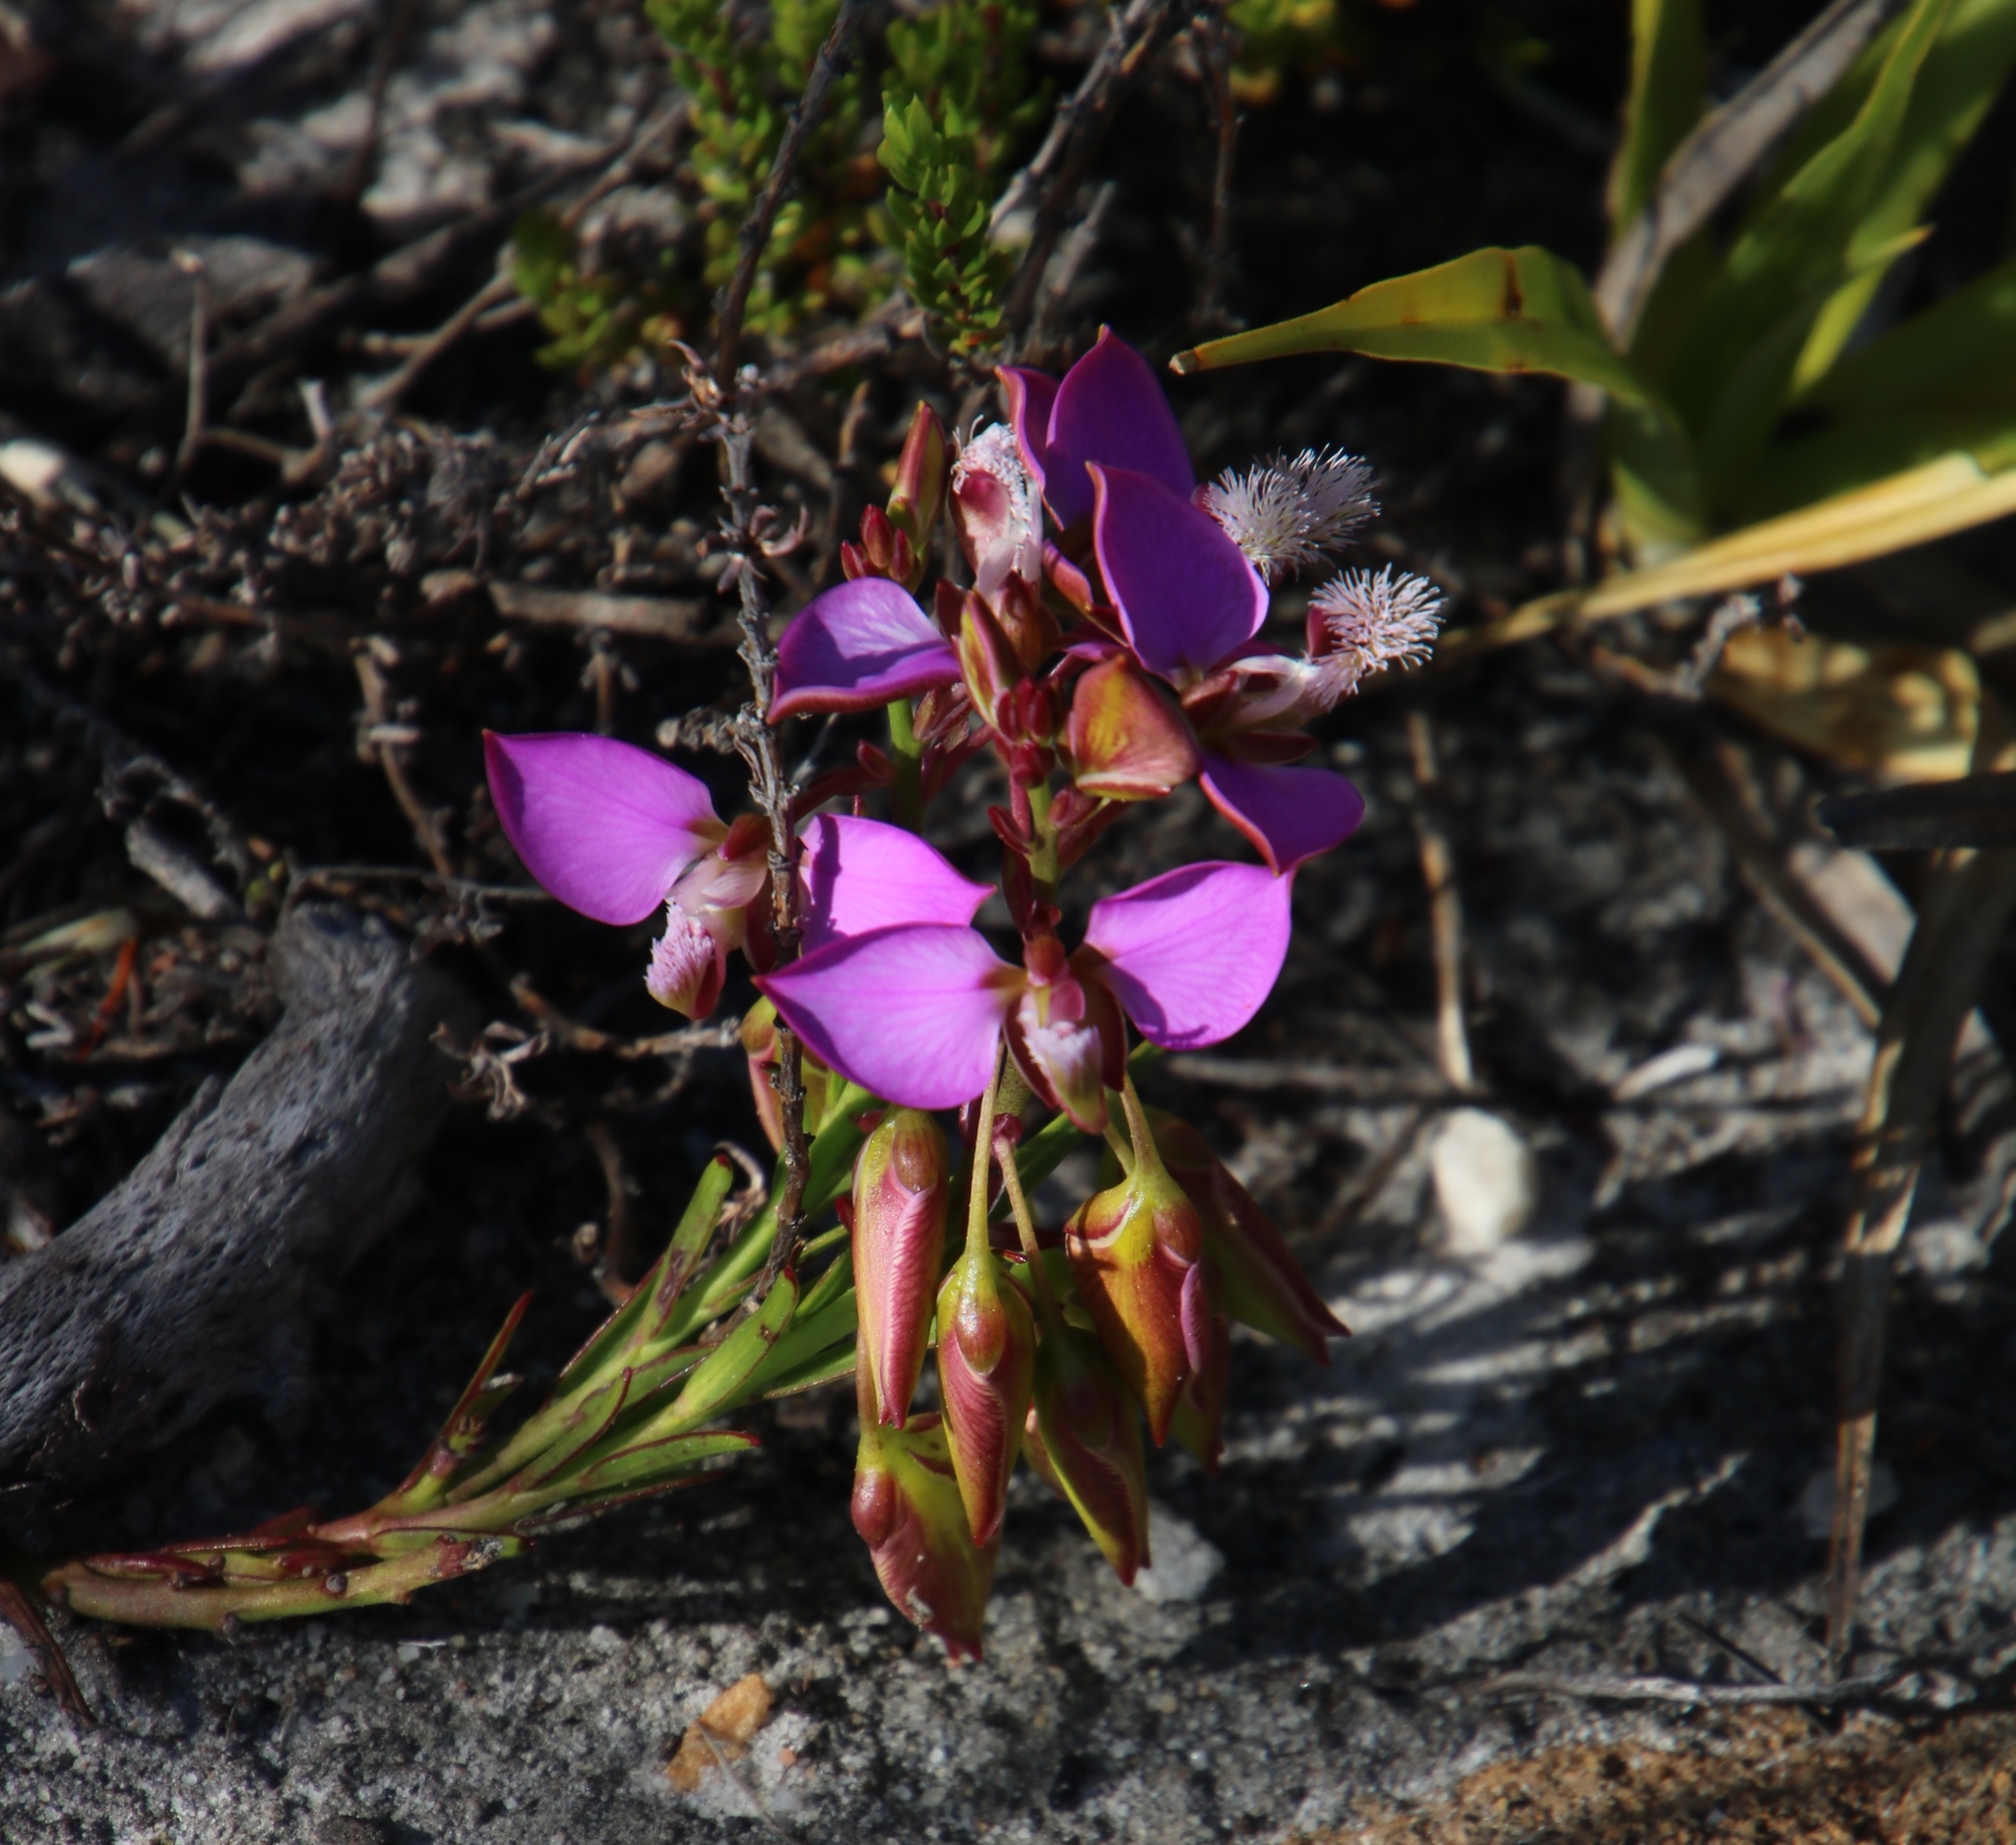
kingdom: Plantae
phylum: Tracheophyta
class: Magnoliopsida
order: Fabales
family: Polygalaceae
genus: Polygala
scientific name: Polygala bracteolata
